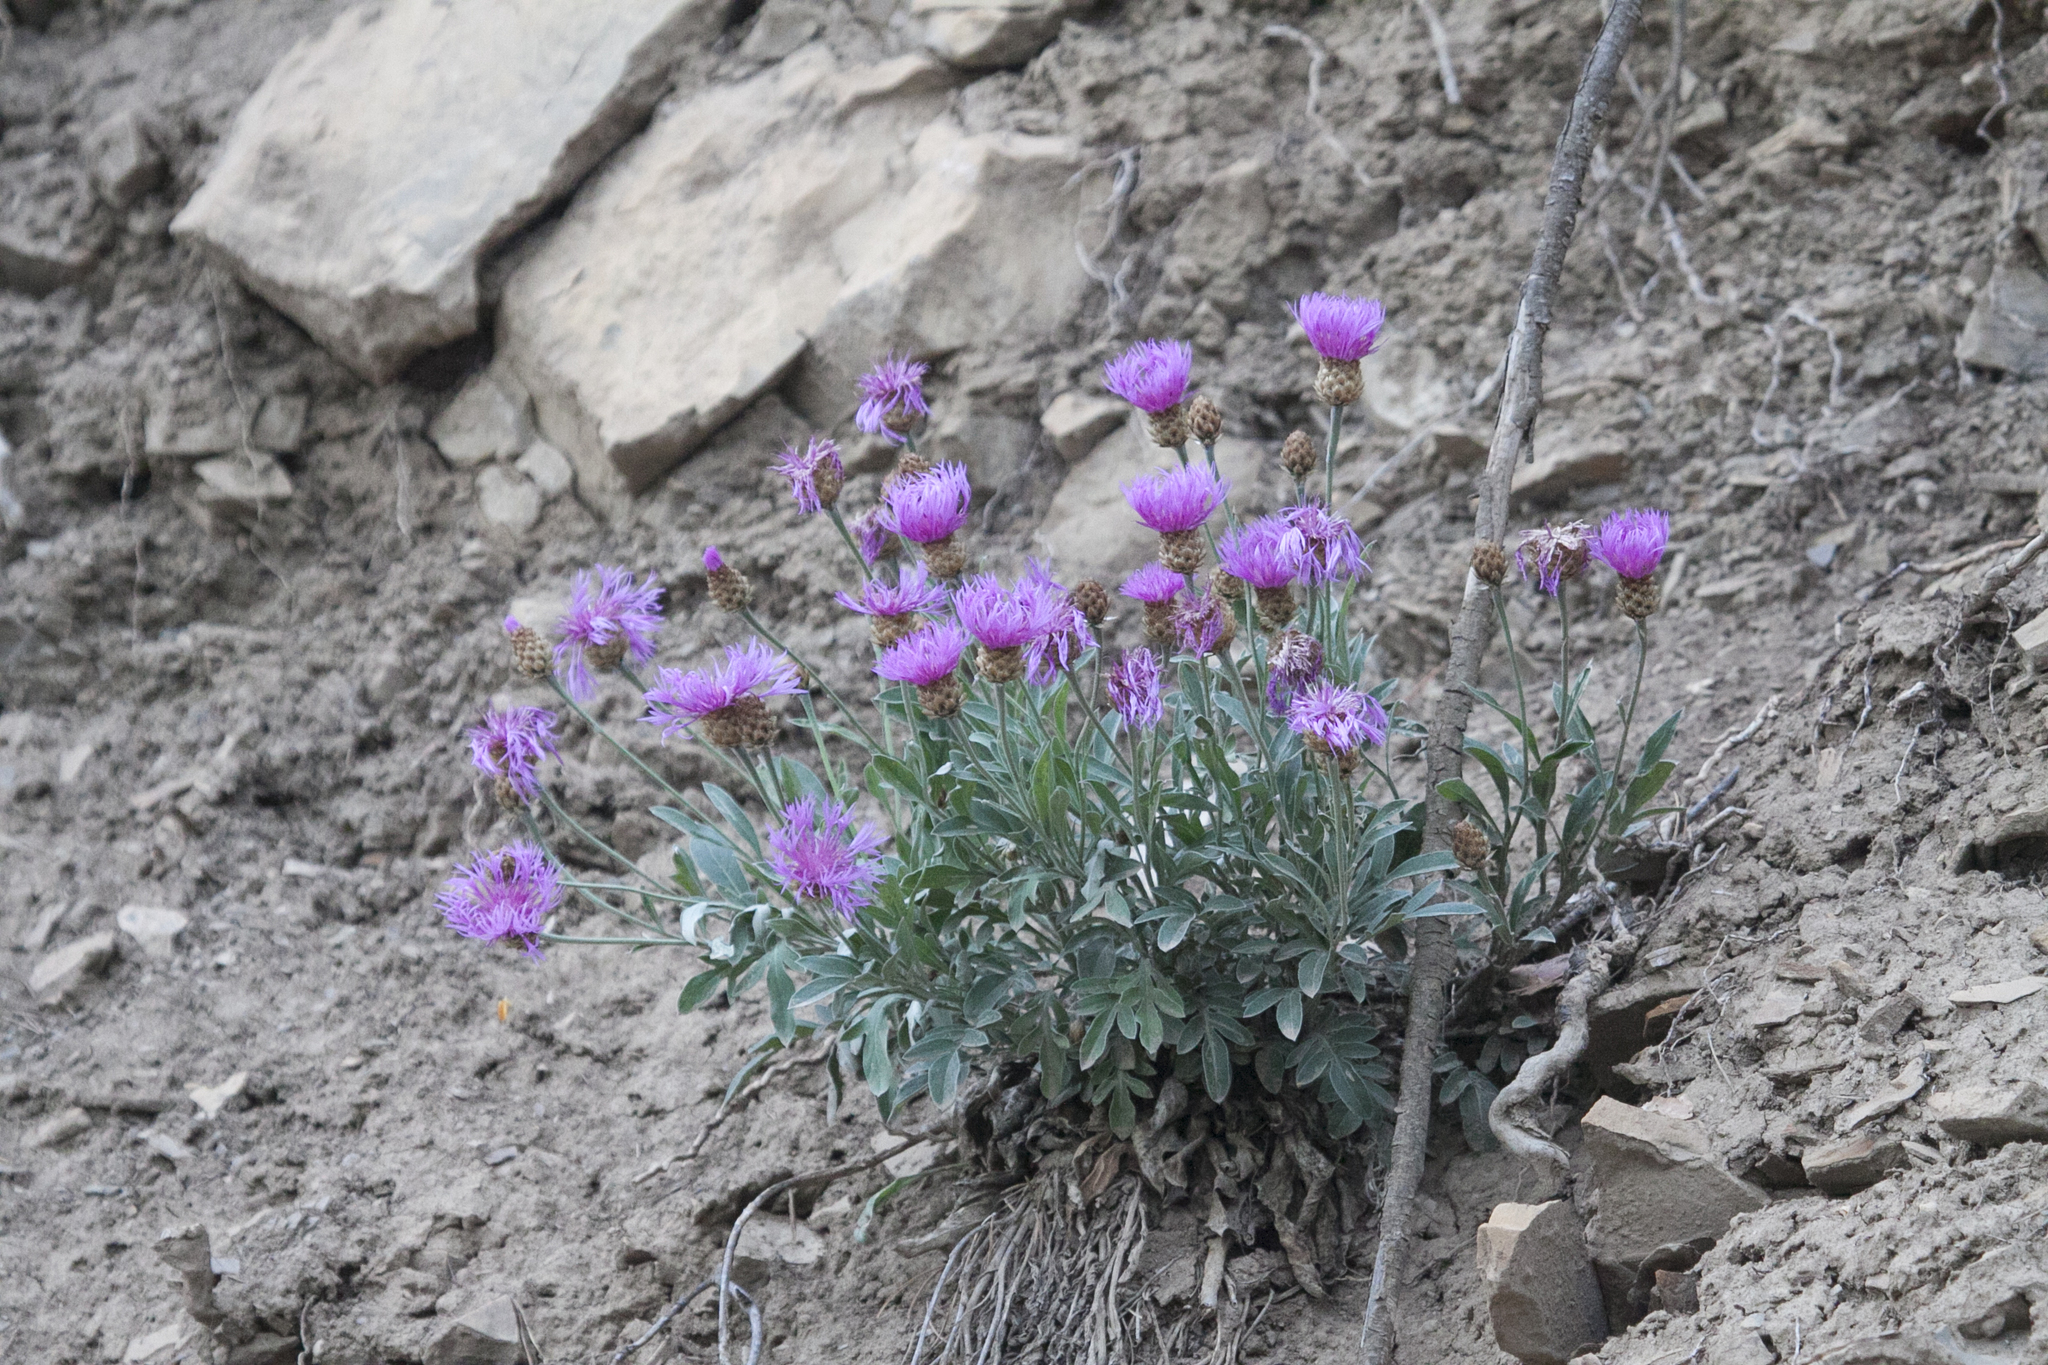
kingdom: Plantae
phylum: Tracheophyta
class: Magnoliopsida
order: Asterales
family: Asteraceae
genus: Psephellus
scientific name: Psephellus sibiricus
